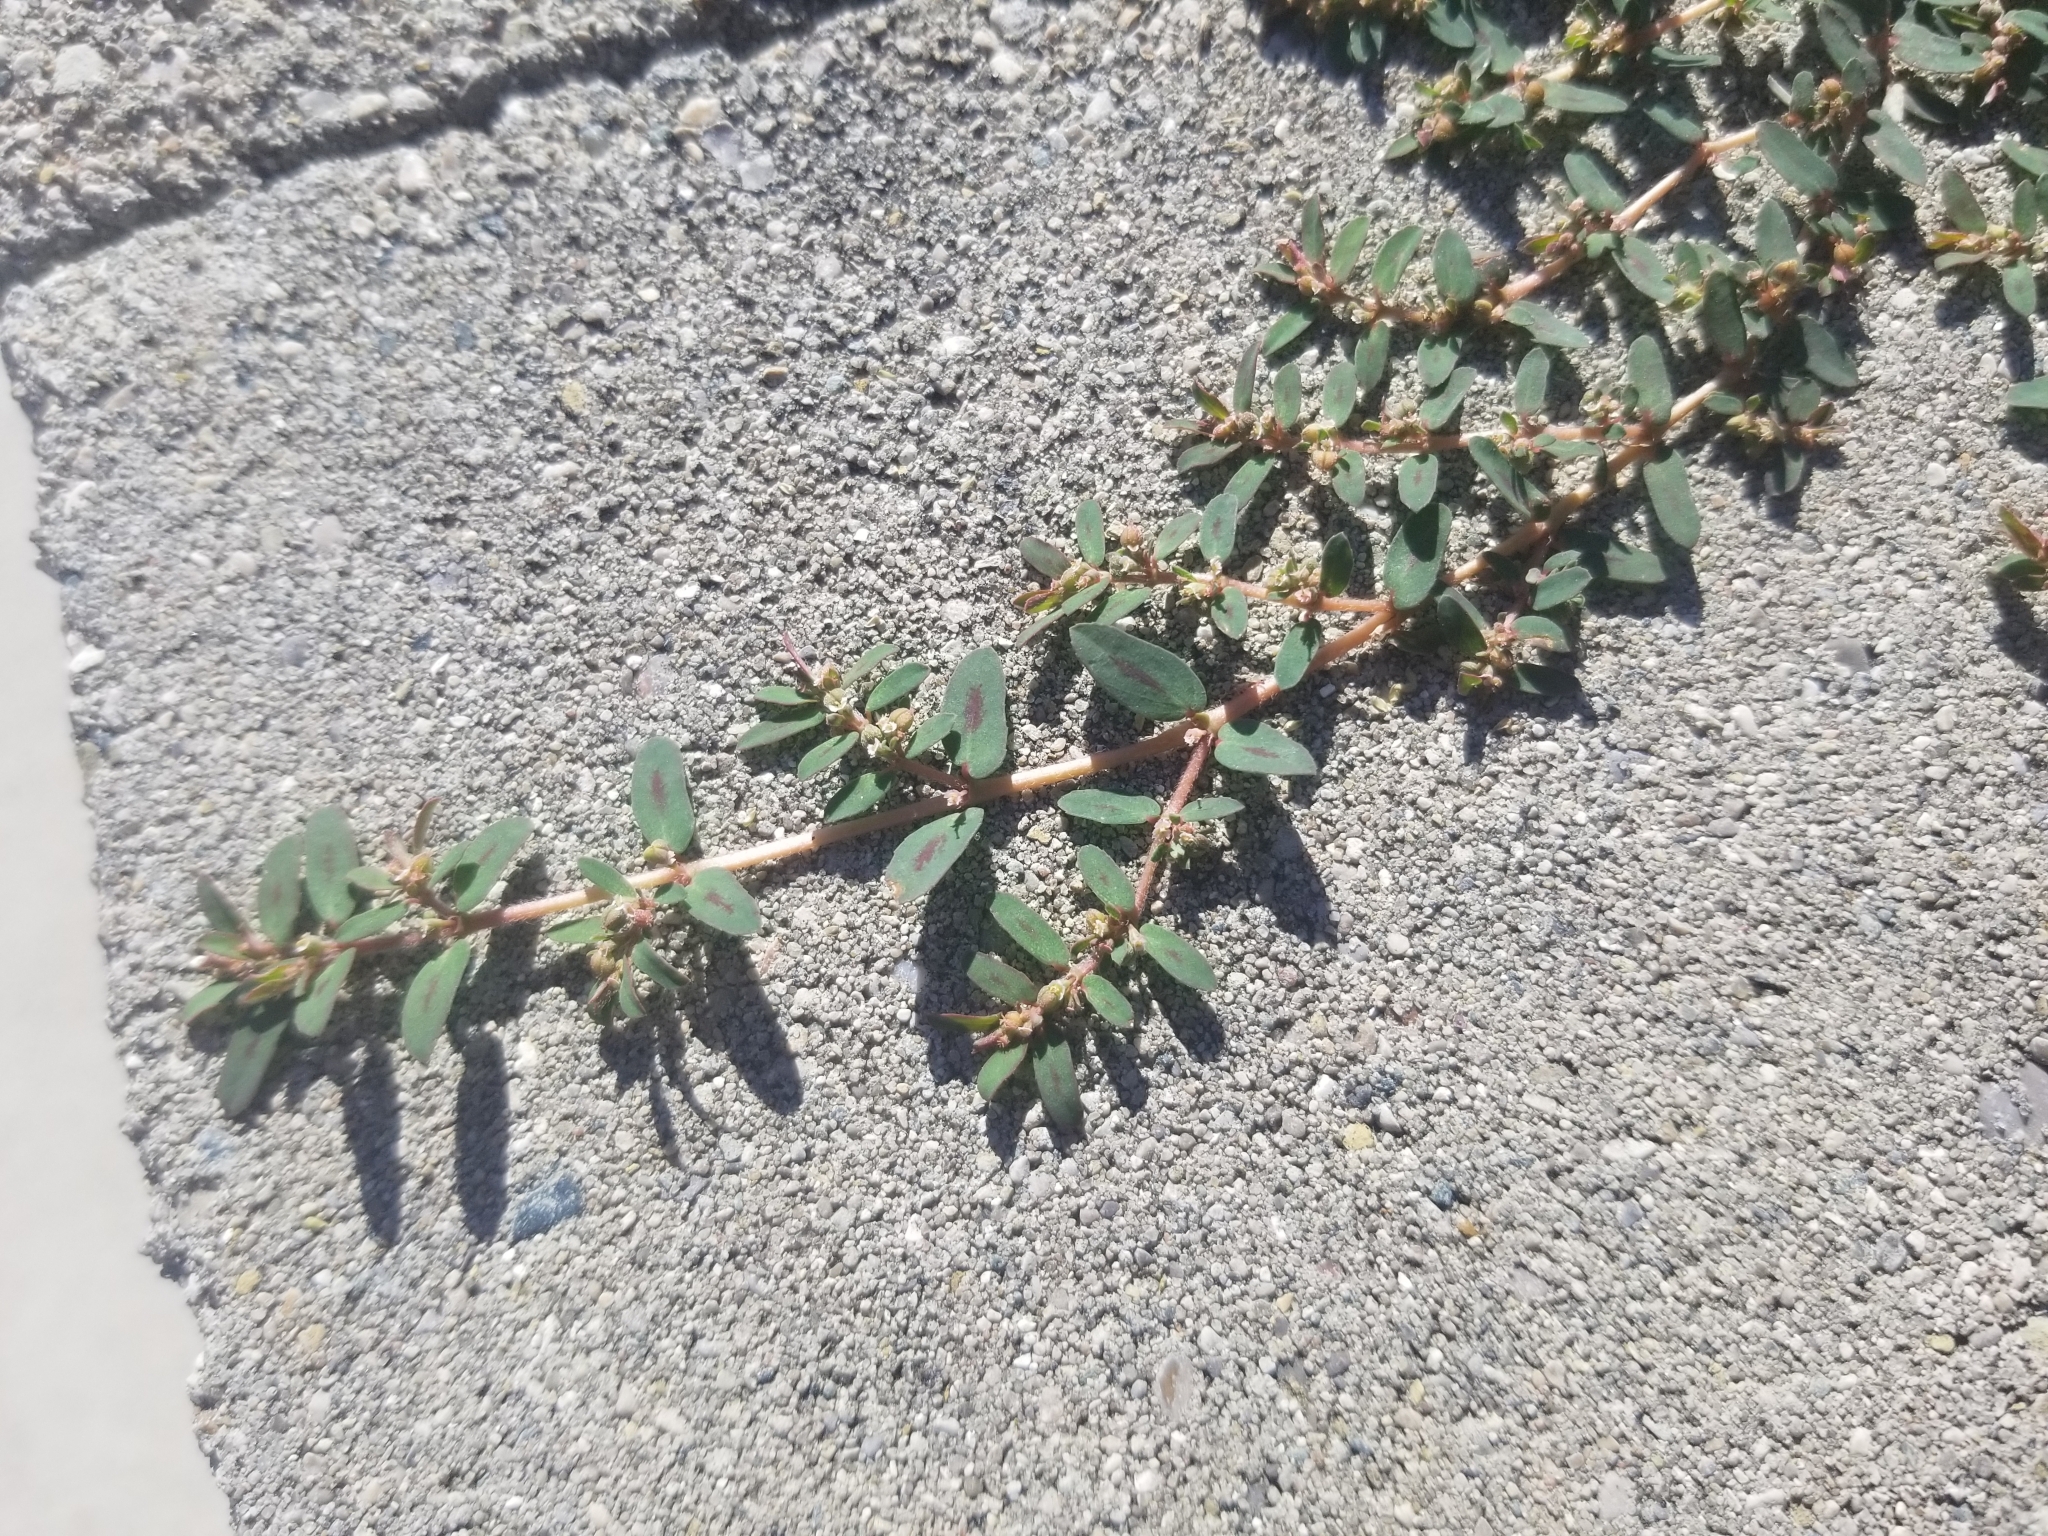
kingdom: Plantae
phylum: Tracheophyta
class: Magnoliopsida
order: Malpighiales
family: Euphorbiaceae
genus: Euphorbia
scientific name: Euphorbia maculata
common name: Spotted spurge
